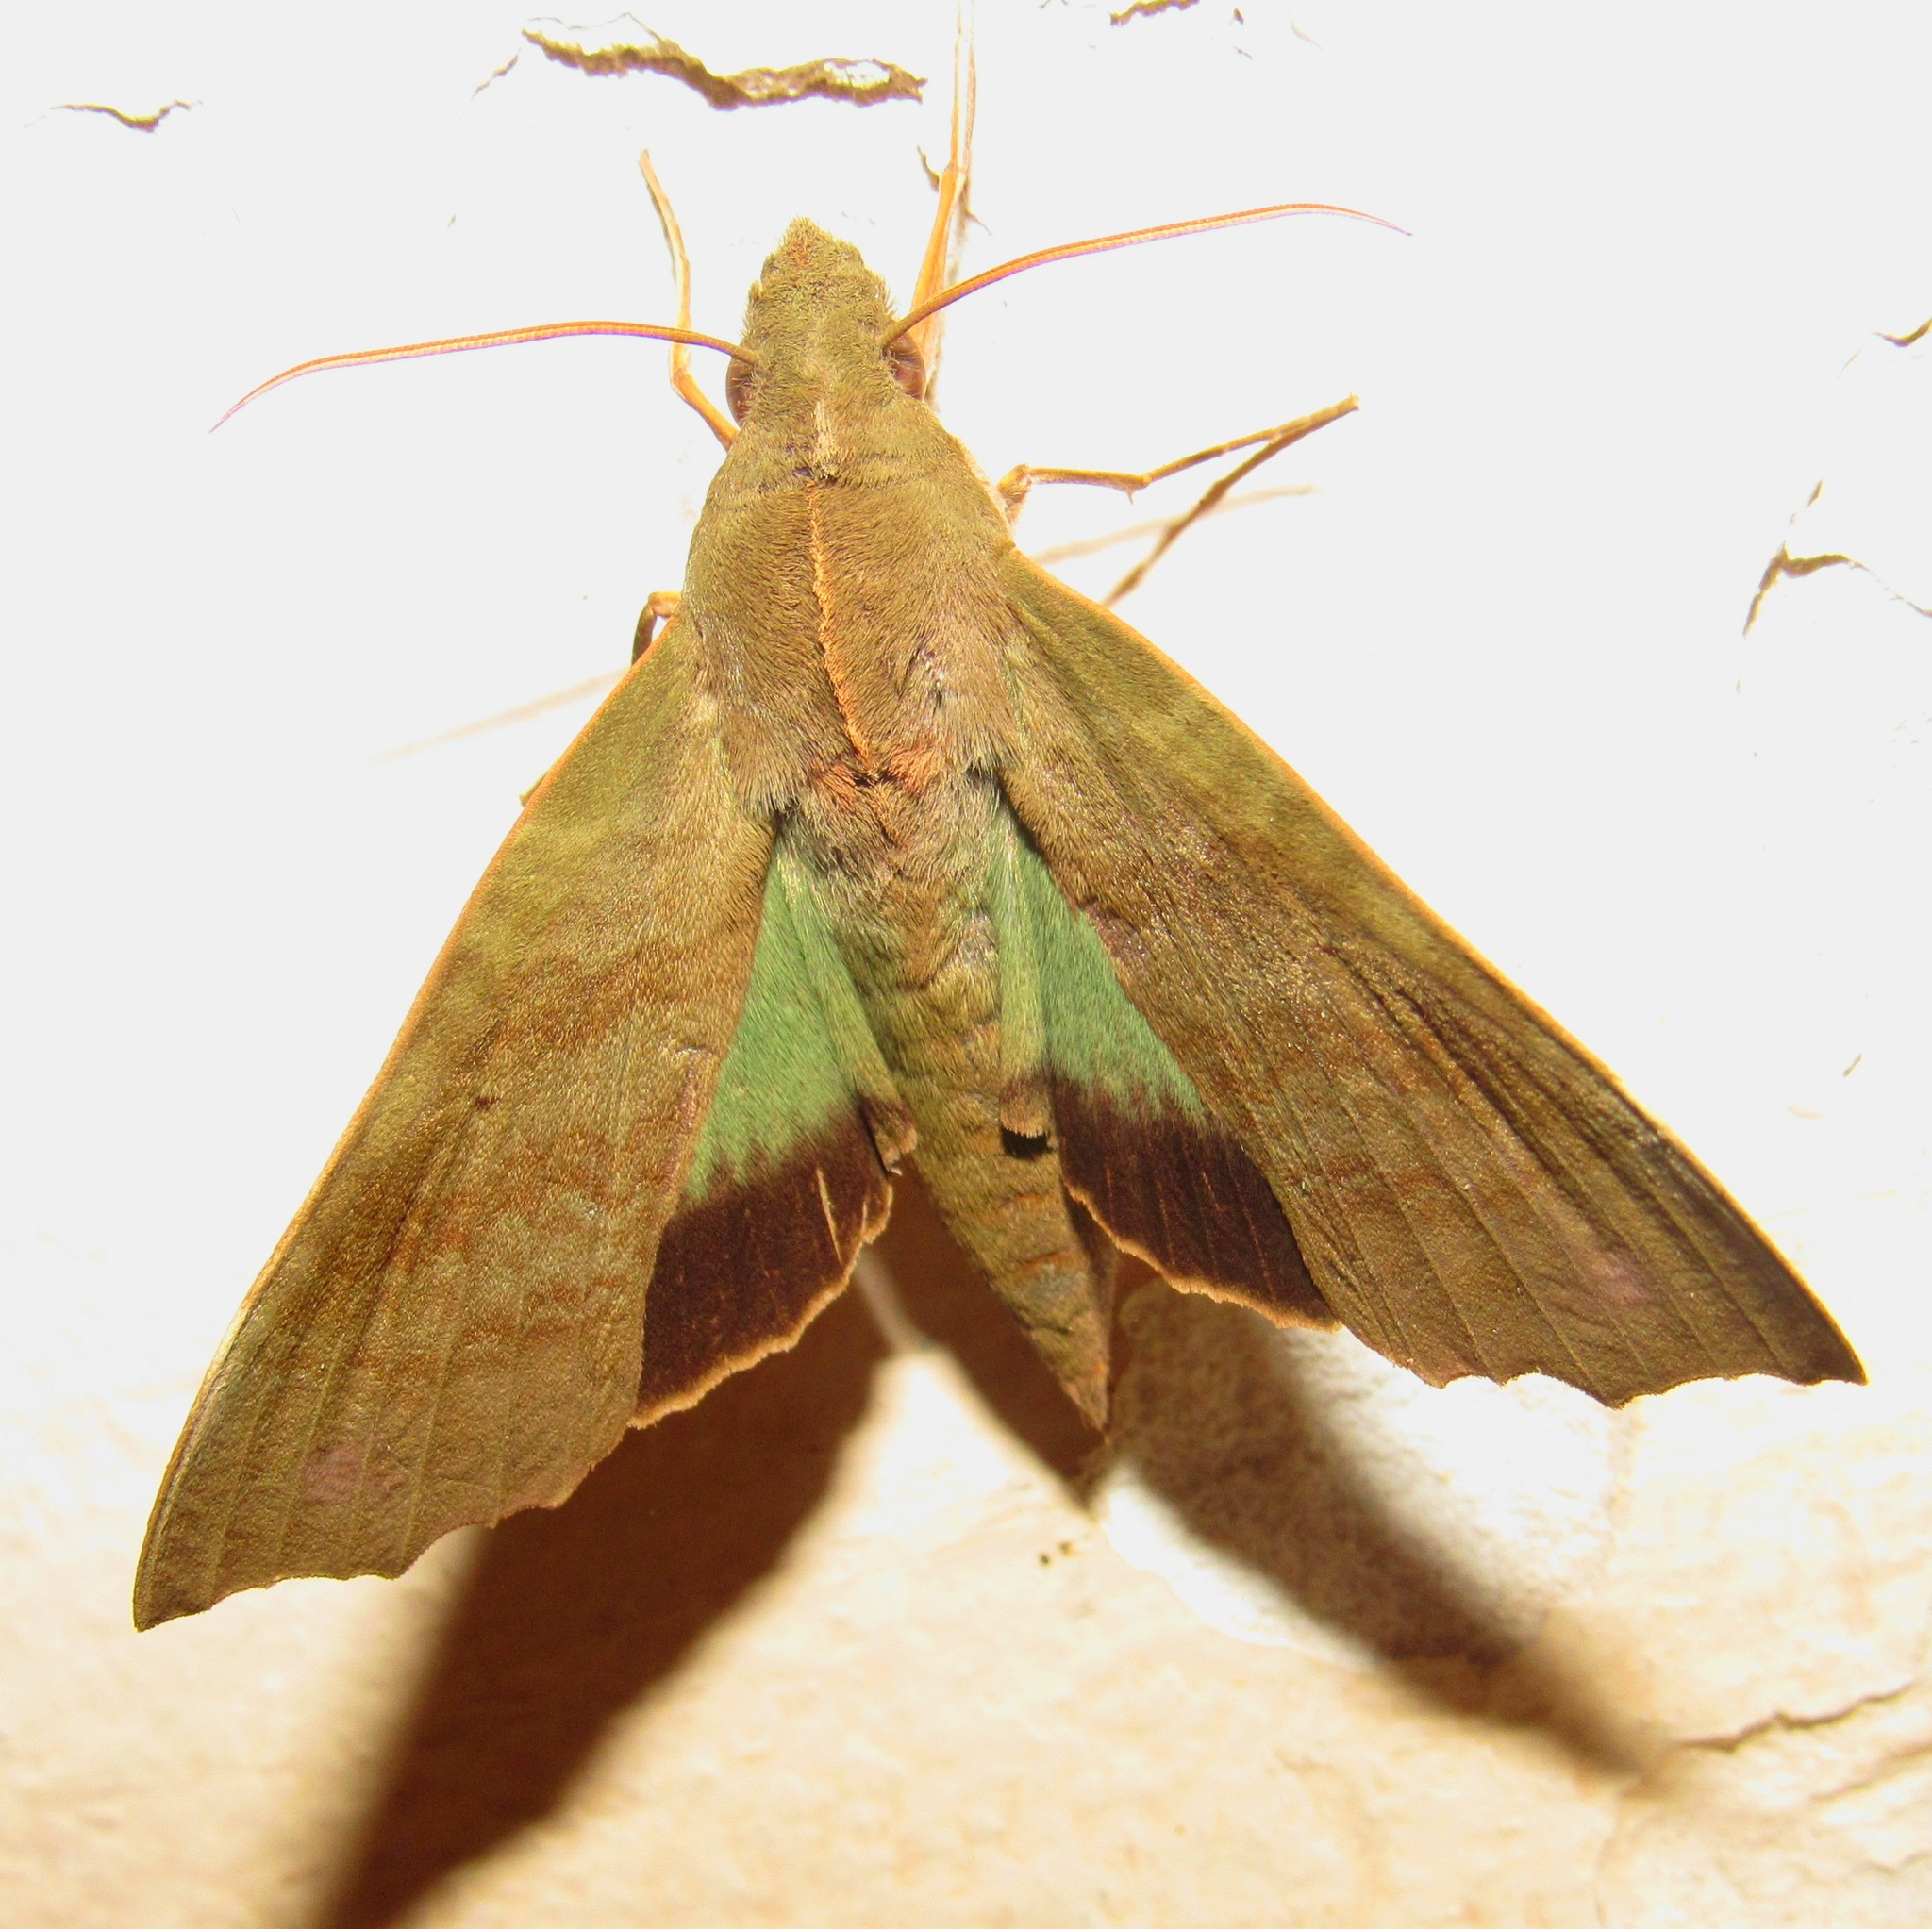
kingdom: Animalia
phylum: Arthropoda
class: Insecta
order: Lepidoptera
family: Sphingidae
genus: Aleuron
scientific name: Aleuron chloroptera
